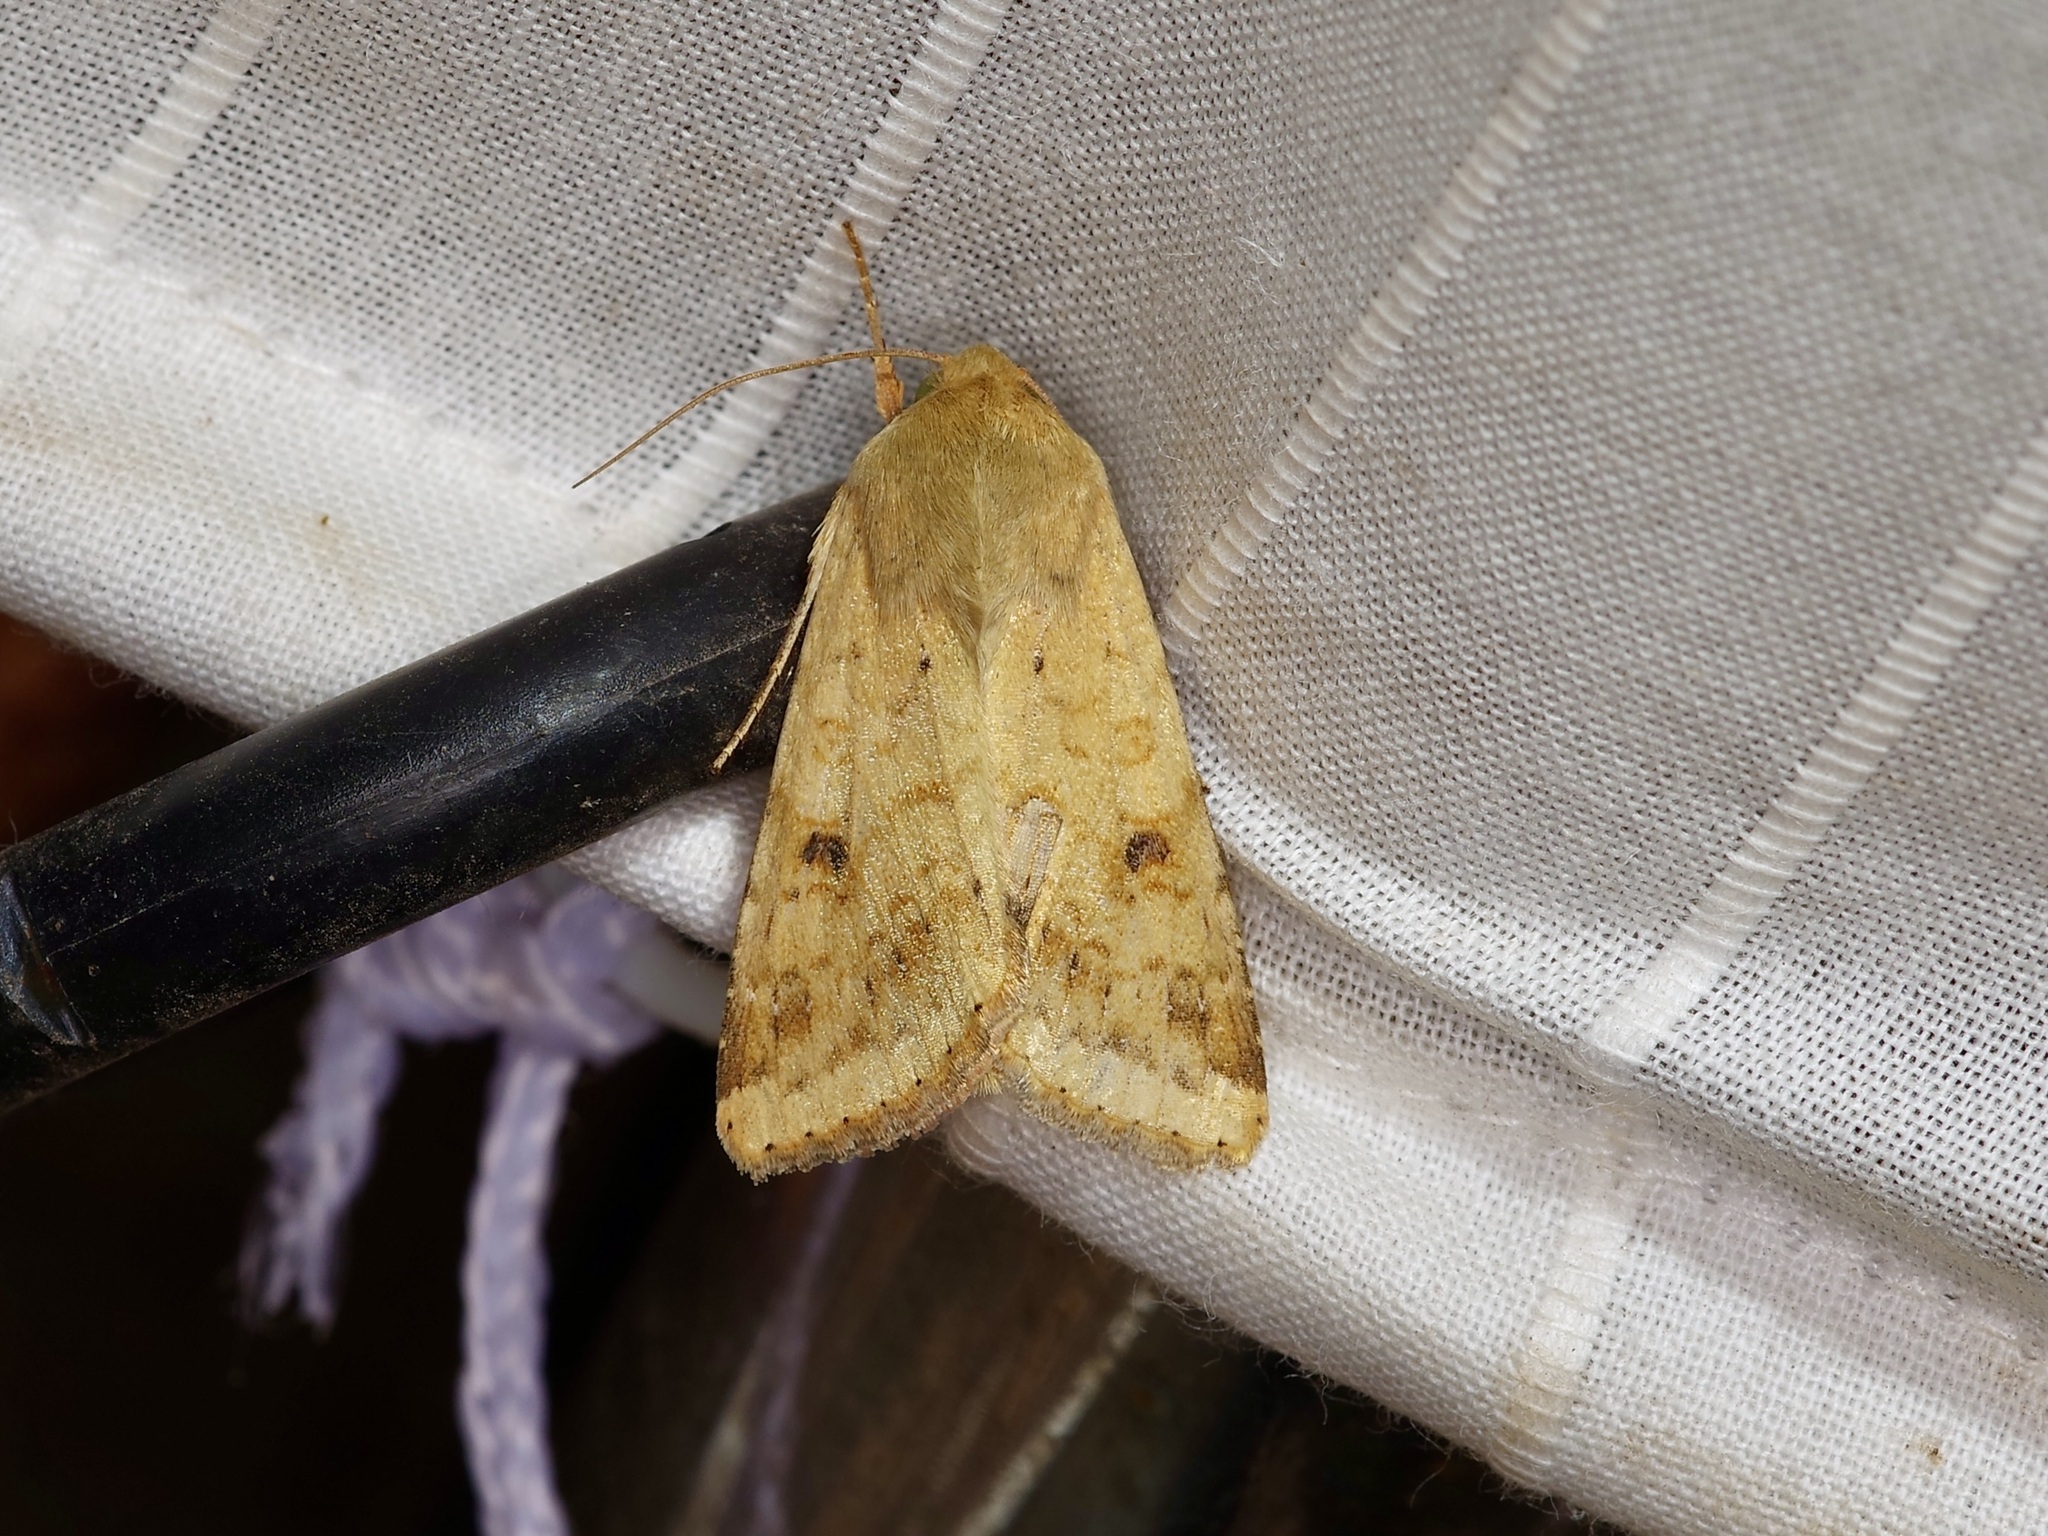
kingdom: Animalia
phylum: Arthropoda
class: Insecta
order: Lepidoptera
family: Noctuidae
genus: Helicoverpa
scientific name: Helicoverpa zea
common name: Bollworm
